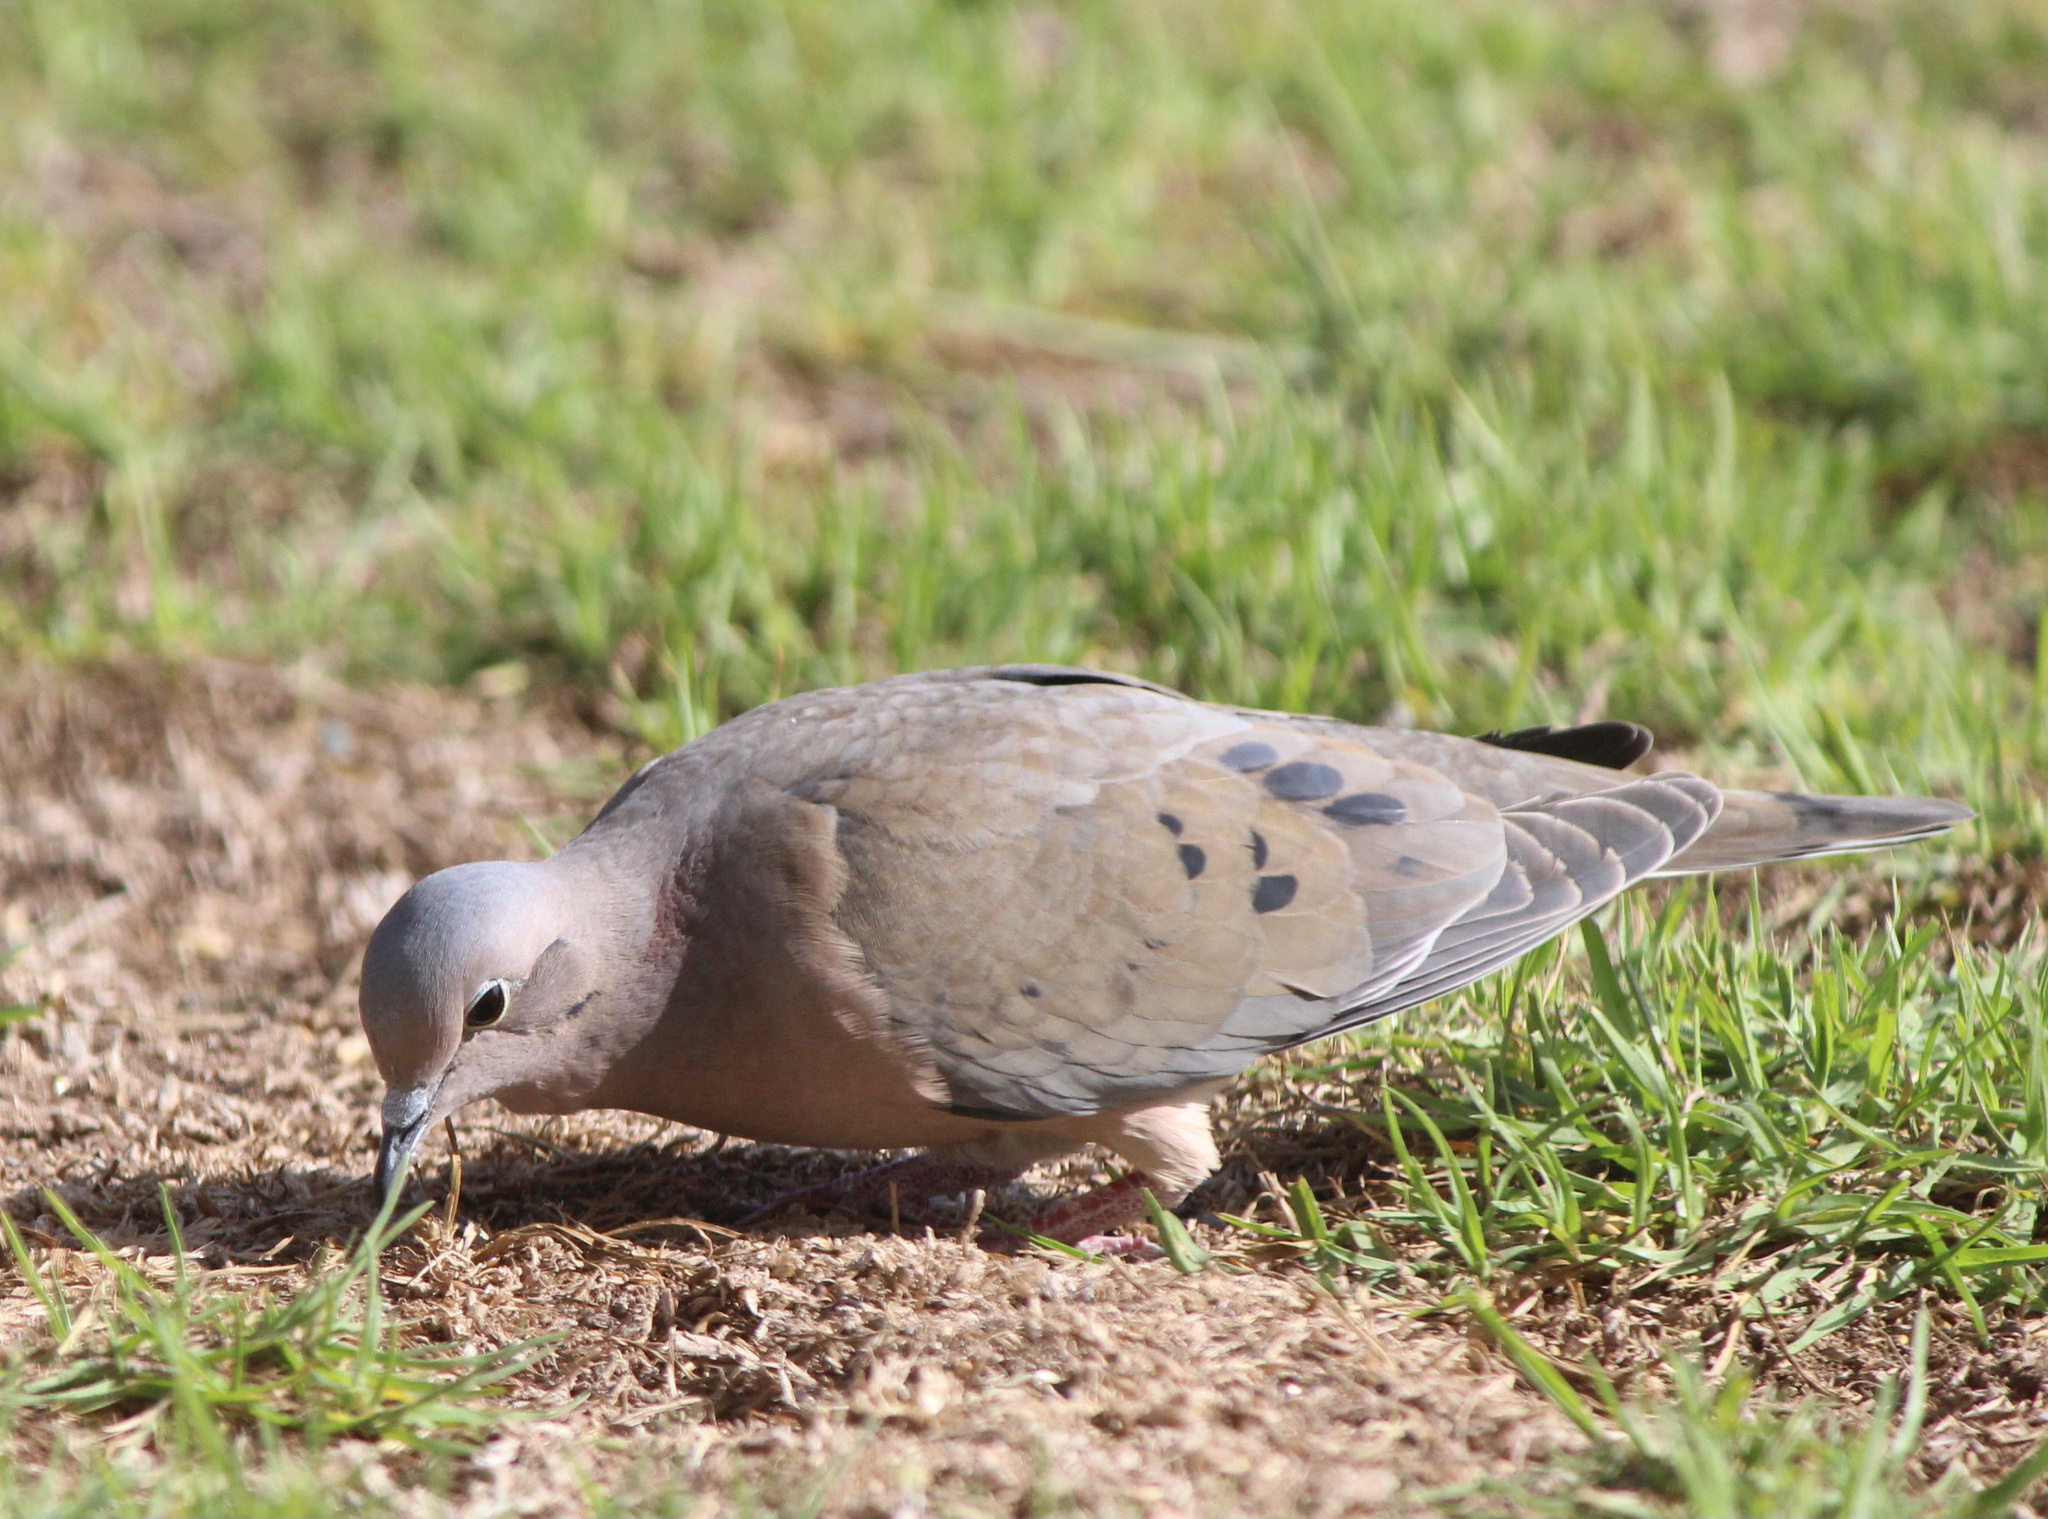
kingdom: Animalia
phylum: Chordata
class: Aves
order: Columbiformes
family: Columbidae
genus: Zenaida
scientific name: Zenaida auriculata
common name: Eared dove
